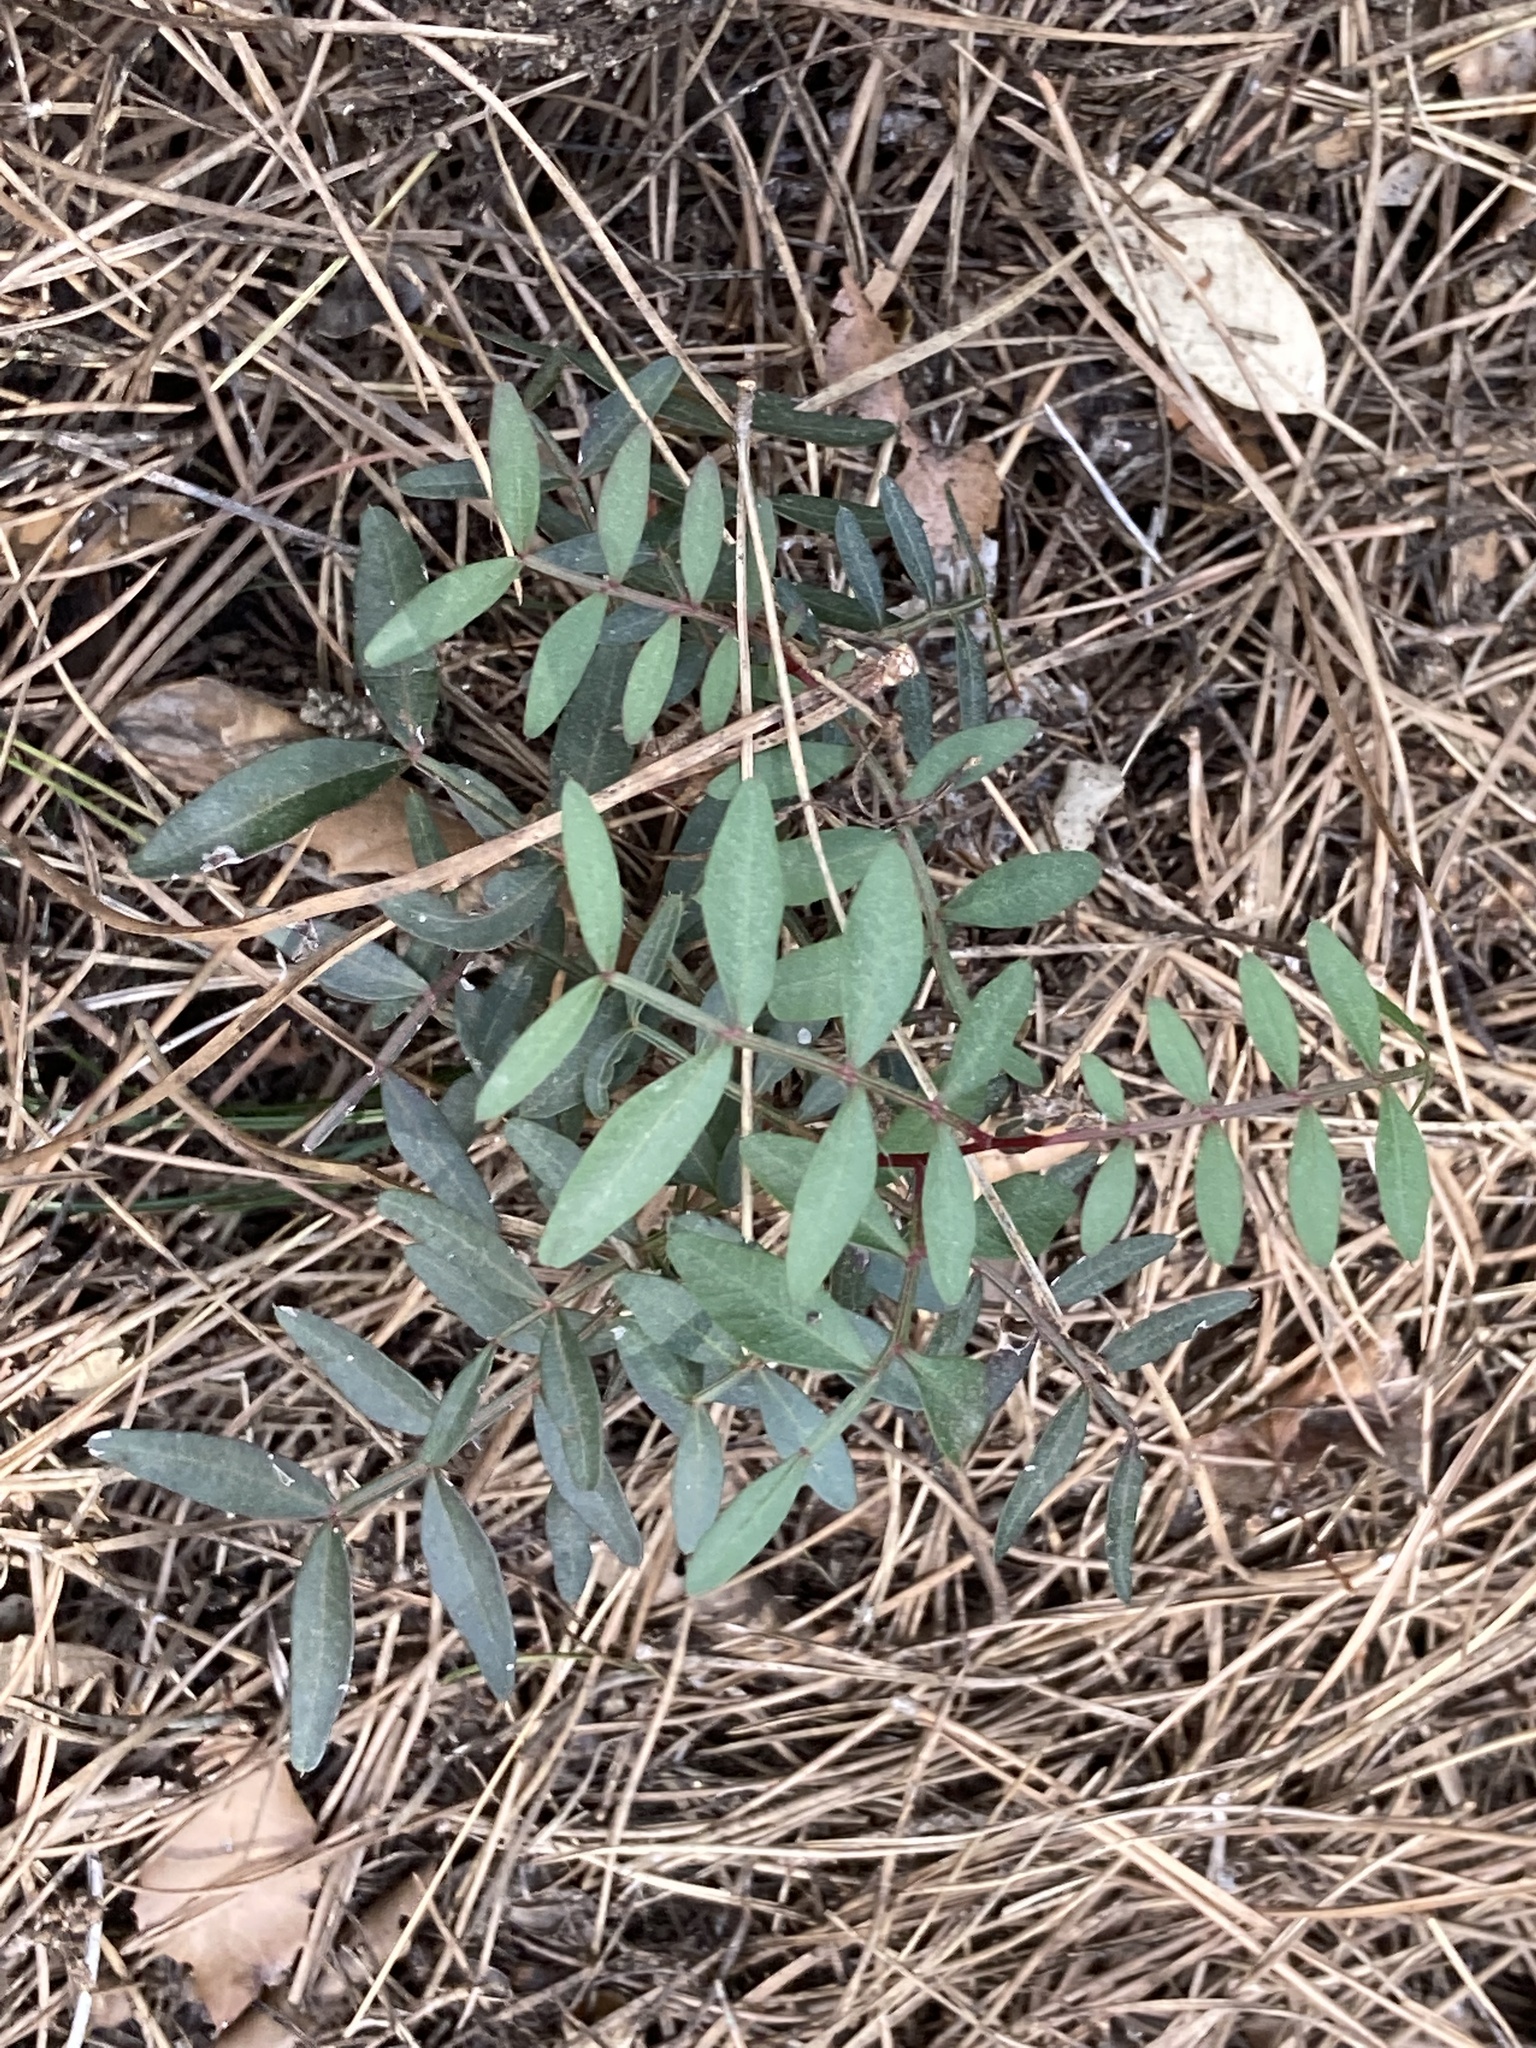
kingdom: Plantae
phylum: Tracheophyta
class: Magnoliopsida
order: Sapindales
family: Anacardiaceae
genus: Pistacia
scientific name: Pistacia lentiscus
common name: Lentisk
